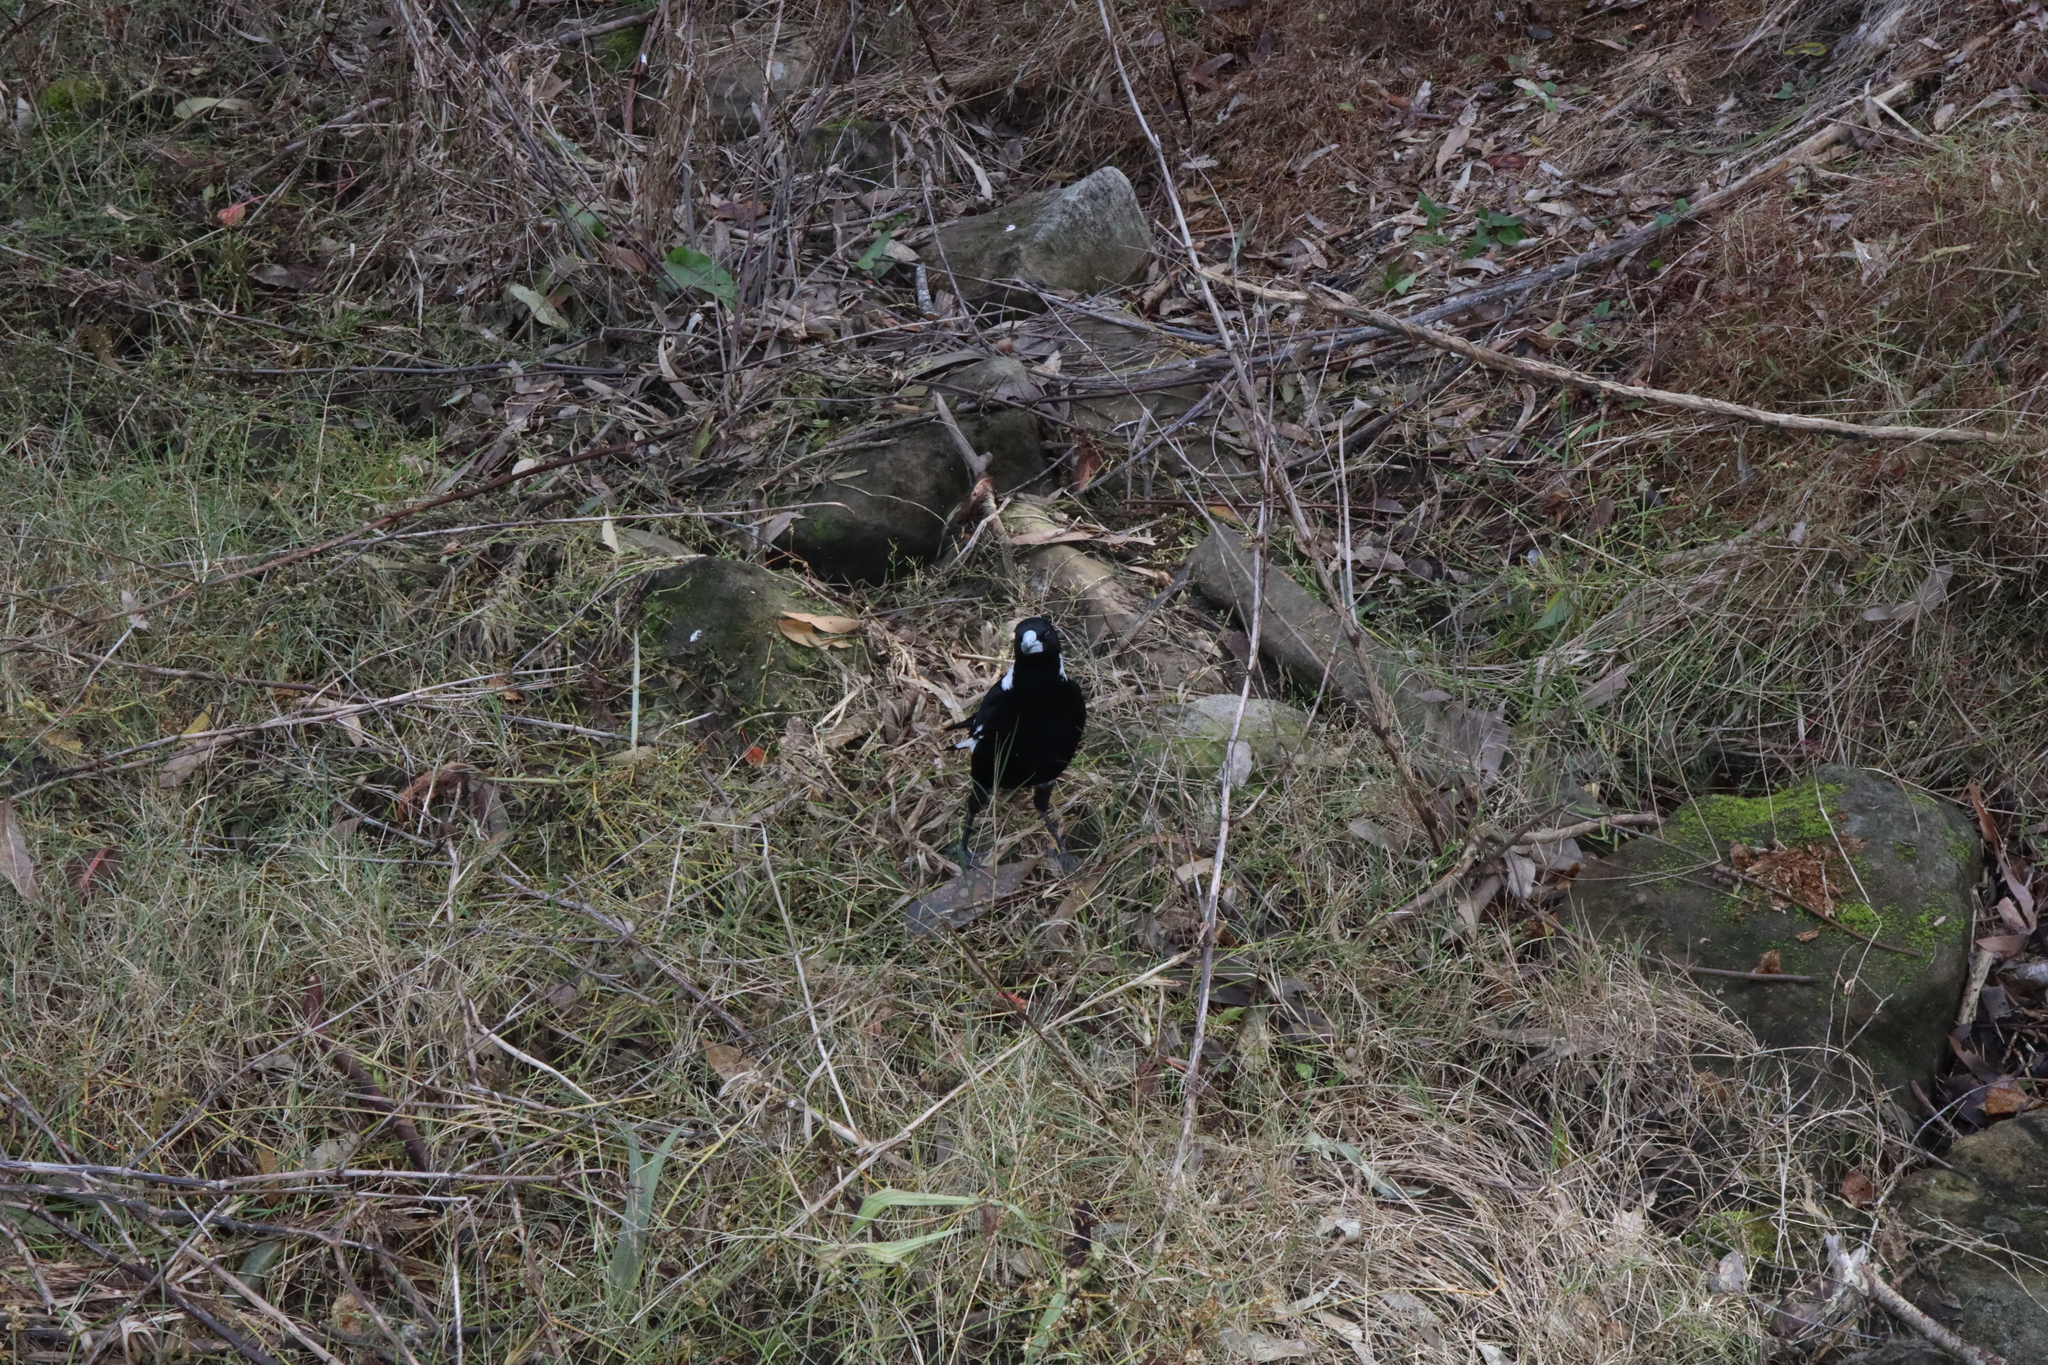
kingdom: Animalia
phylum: Chordata
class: Aves
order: Passeriformes
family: Cracticidae
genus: Gymnorhina
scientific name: Gymnorhina tibicen
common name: Australian magpie
